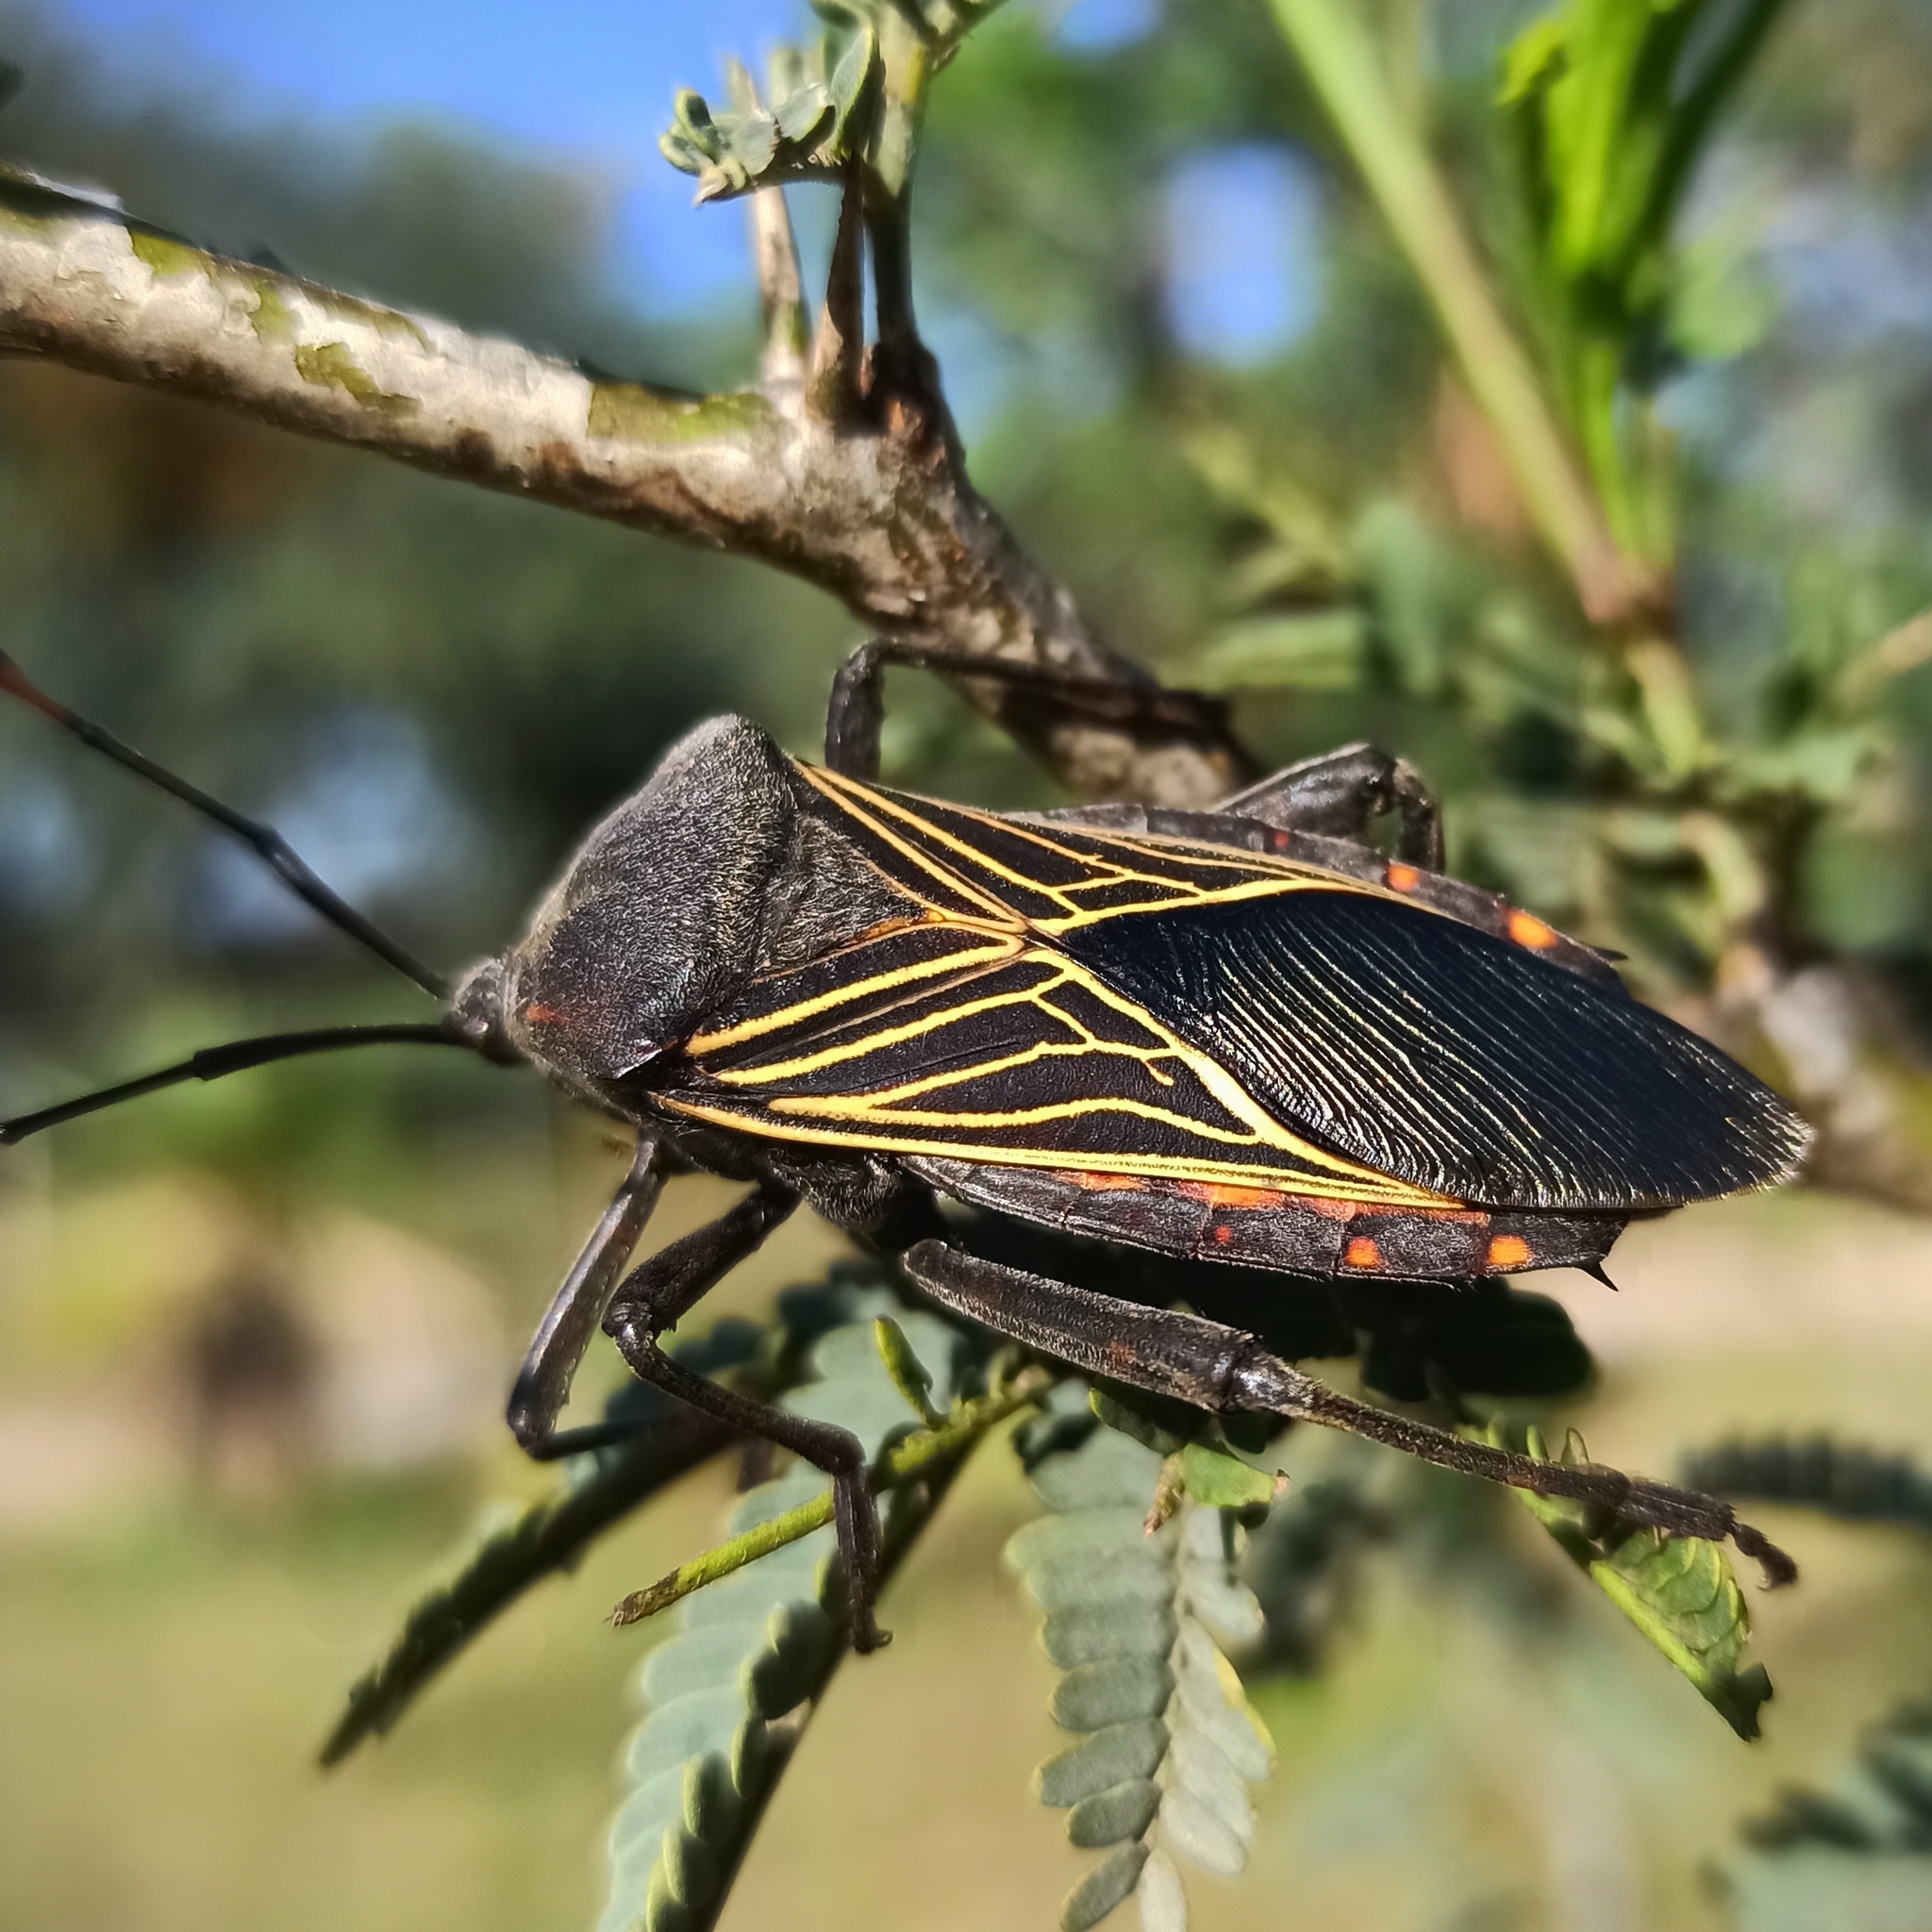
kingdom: Animalia
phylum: Arthropoda
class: Insecta
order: Hemiptera
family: Coreidae
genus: Thasus
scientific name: Thasus
